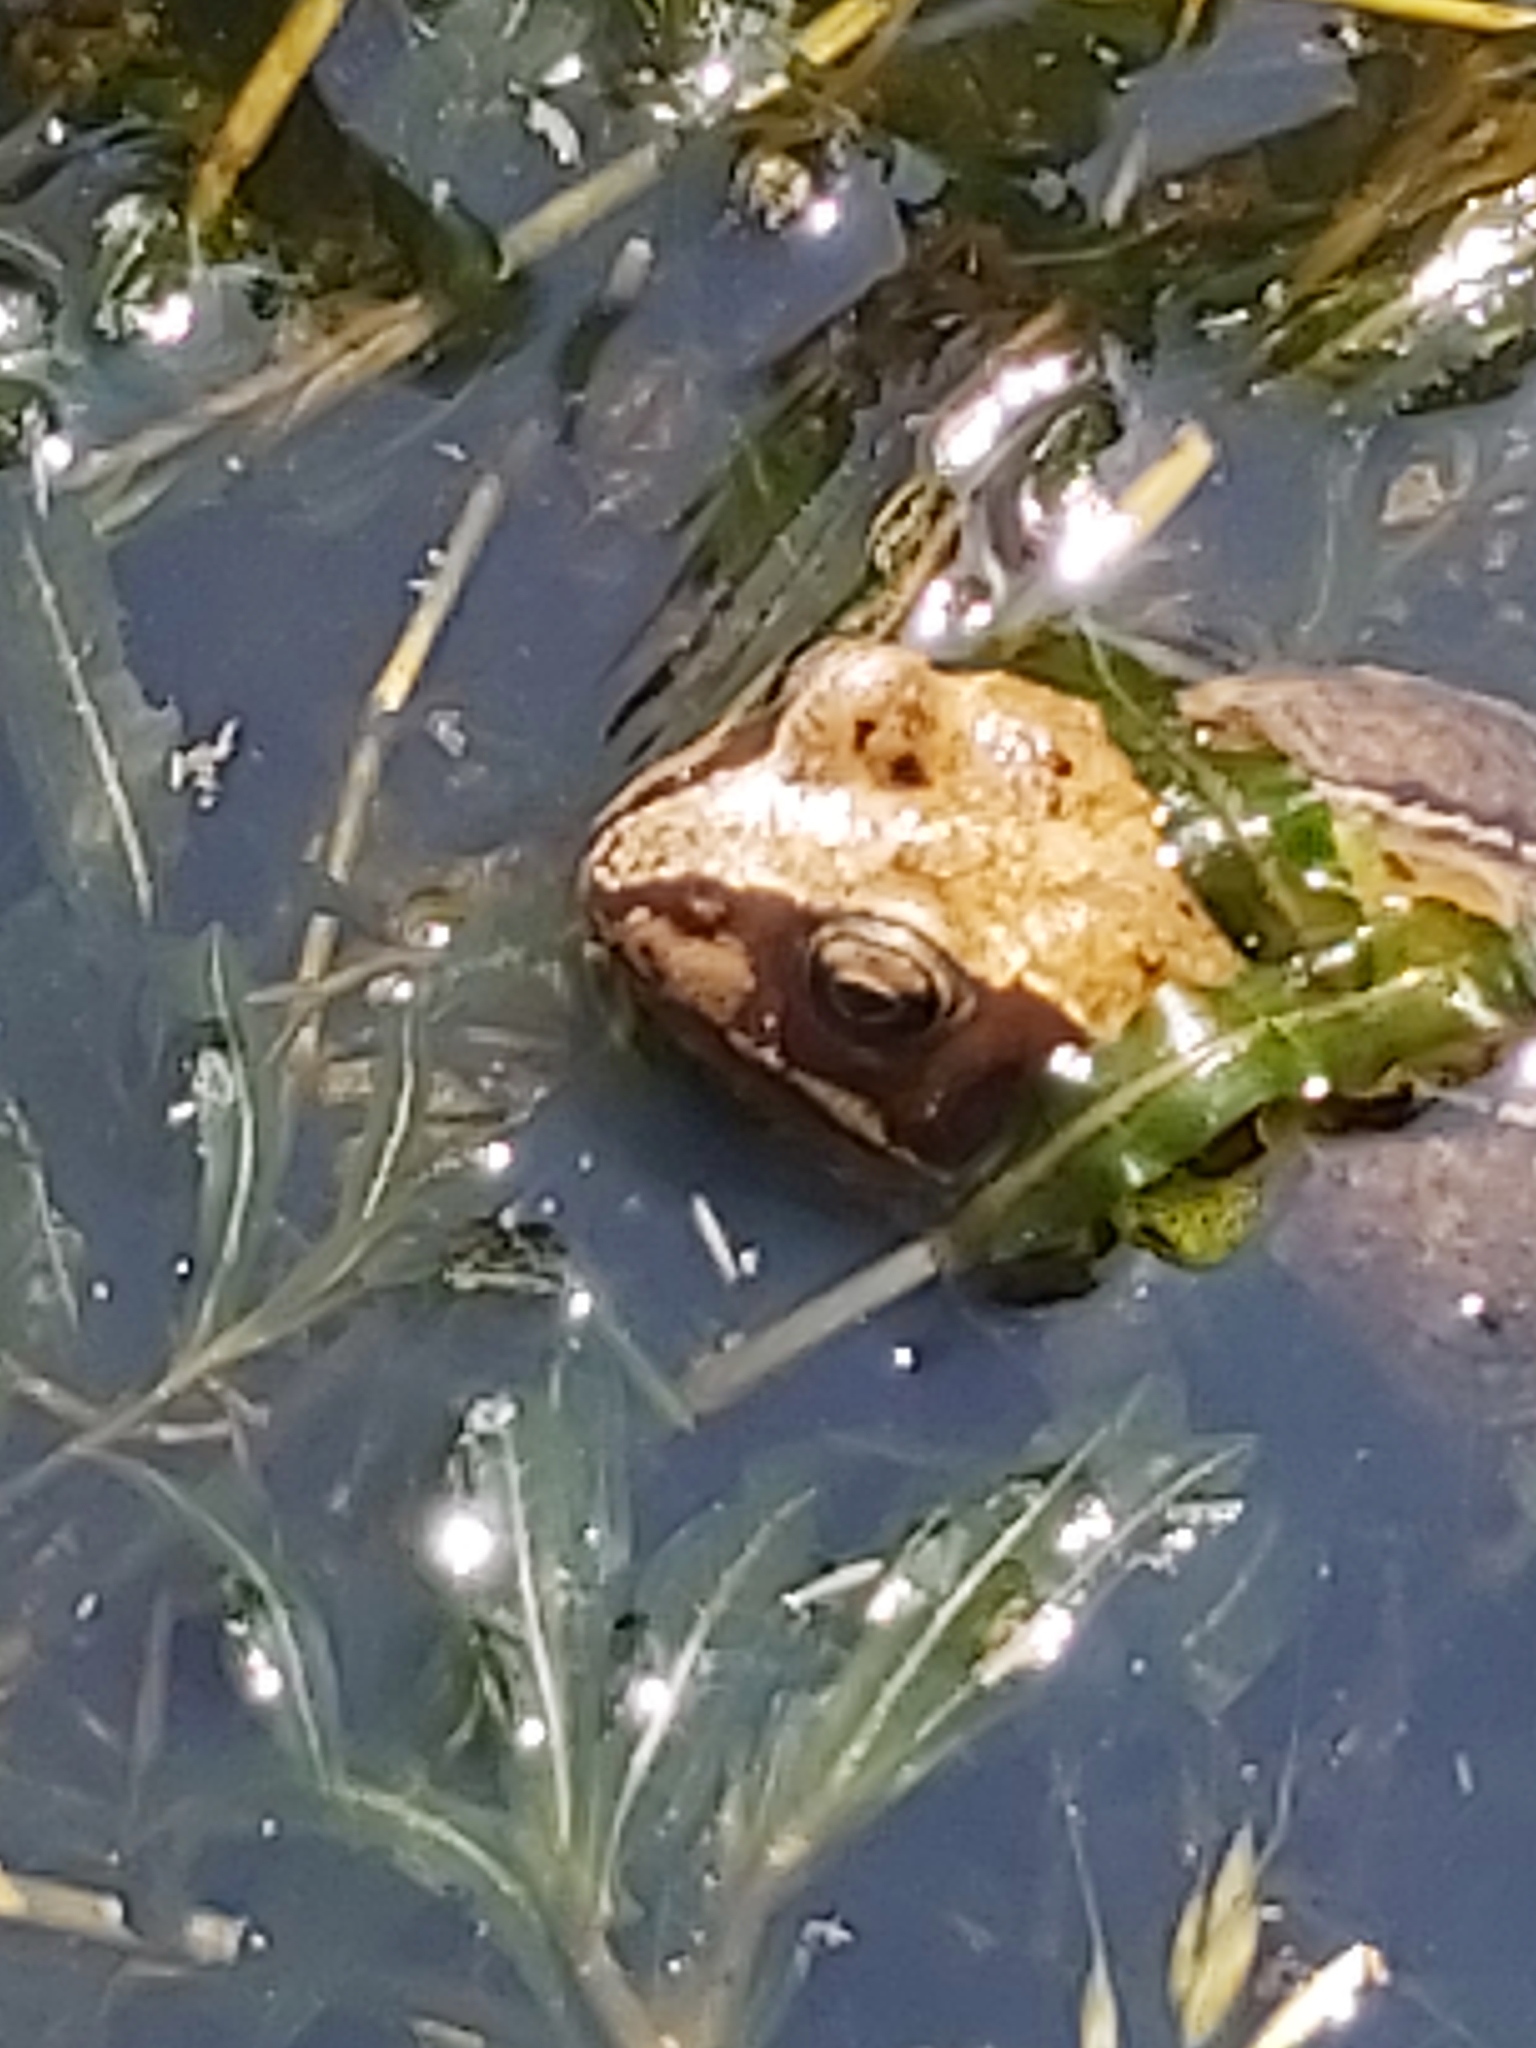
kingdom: Animalia
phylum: Chordata
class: Amphibia
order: Anura
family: Ranidae
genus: Rana
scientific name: Rana temporaria
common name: Common frog
